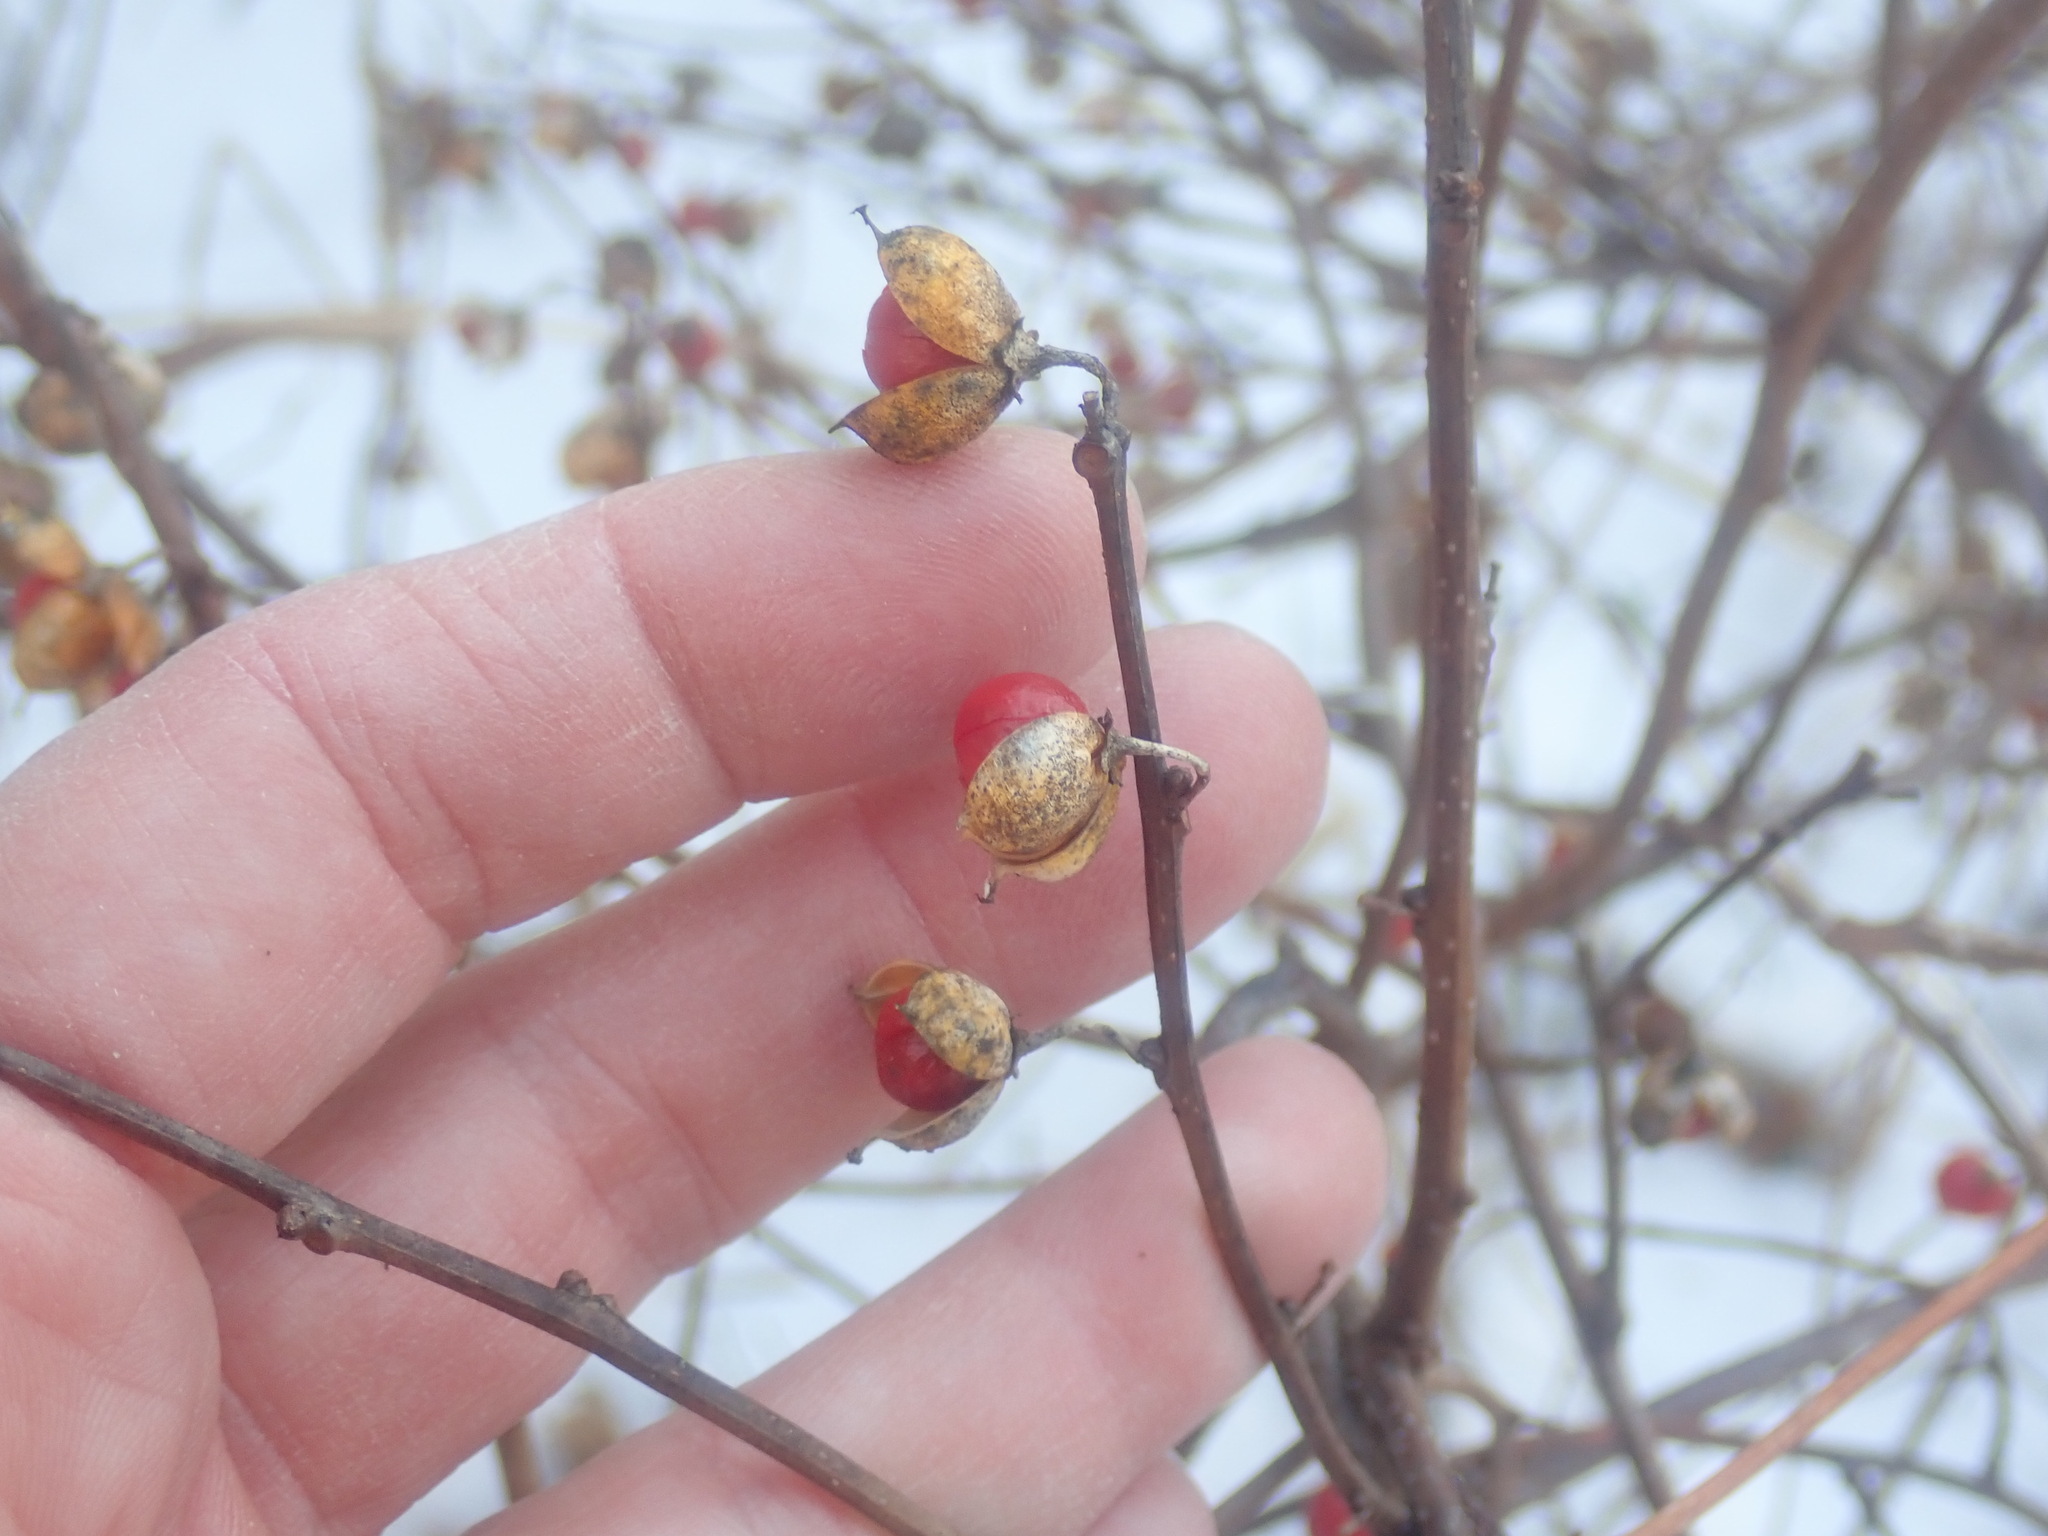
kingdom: Plantae
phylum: Tracheophyta
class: Magnoliopsida
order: Celastrales
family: Celastraceae
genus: Celastrus
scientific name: Celastrus orbiculatus
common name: Oriental bittersweet
